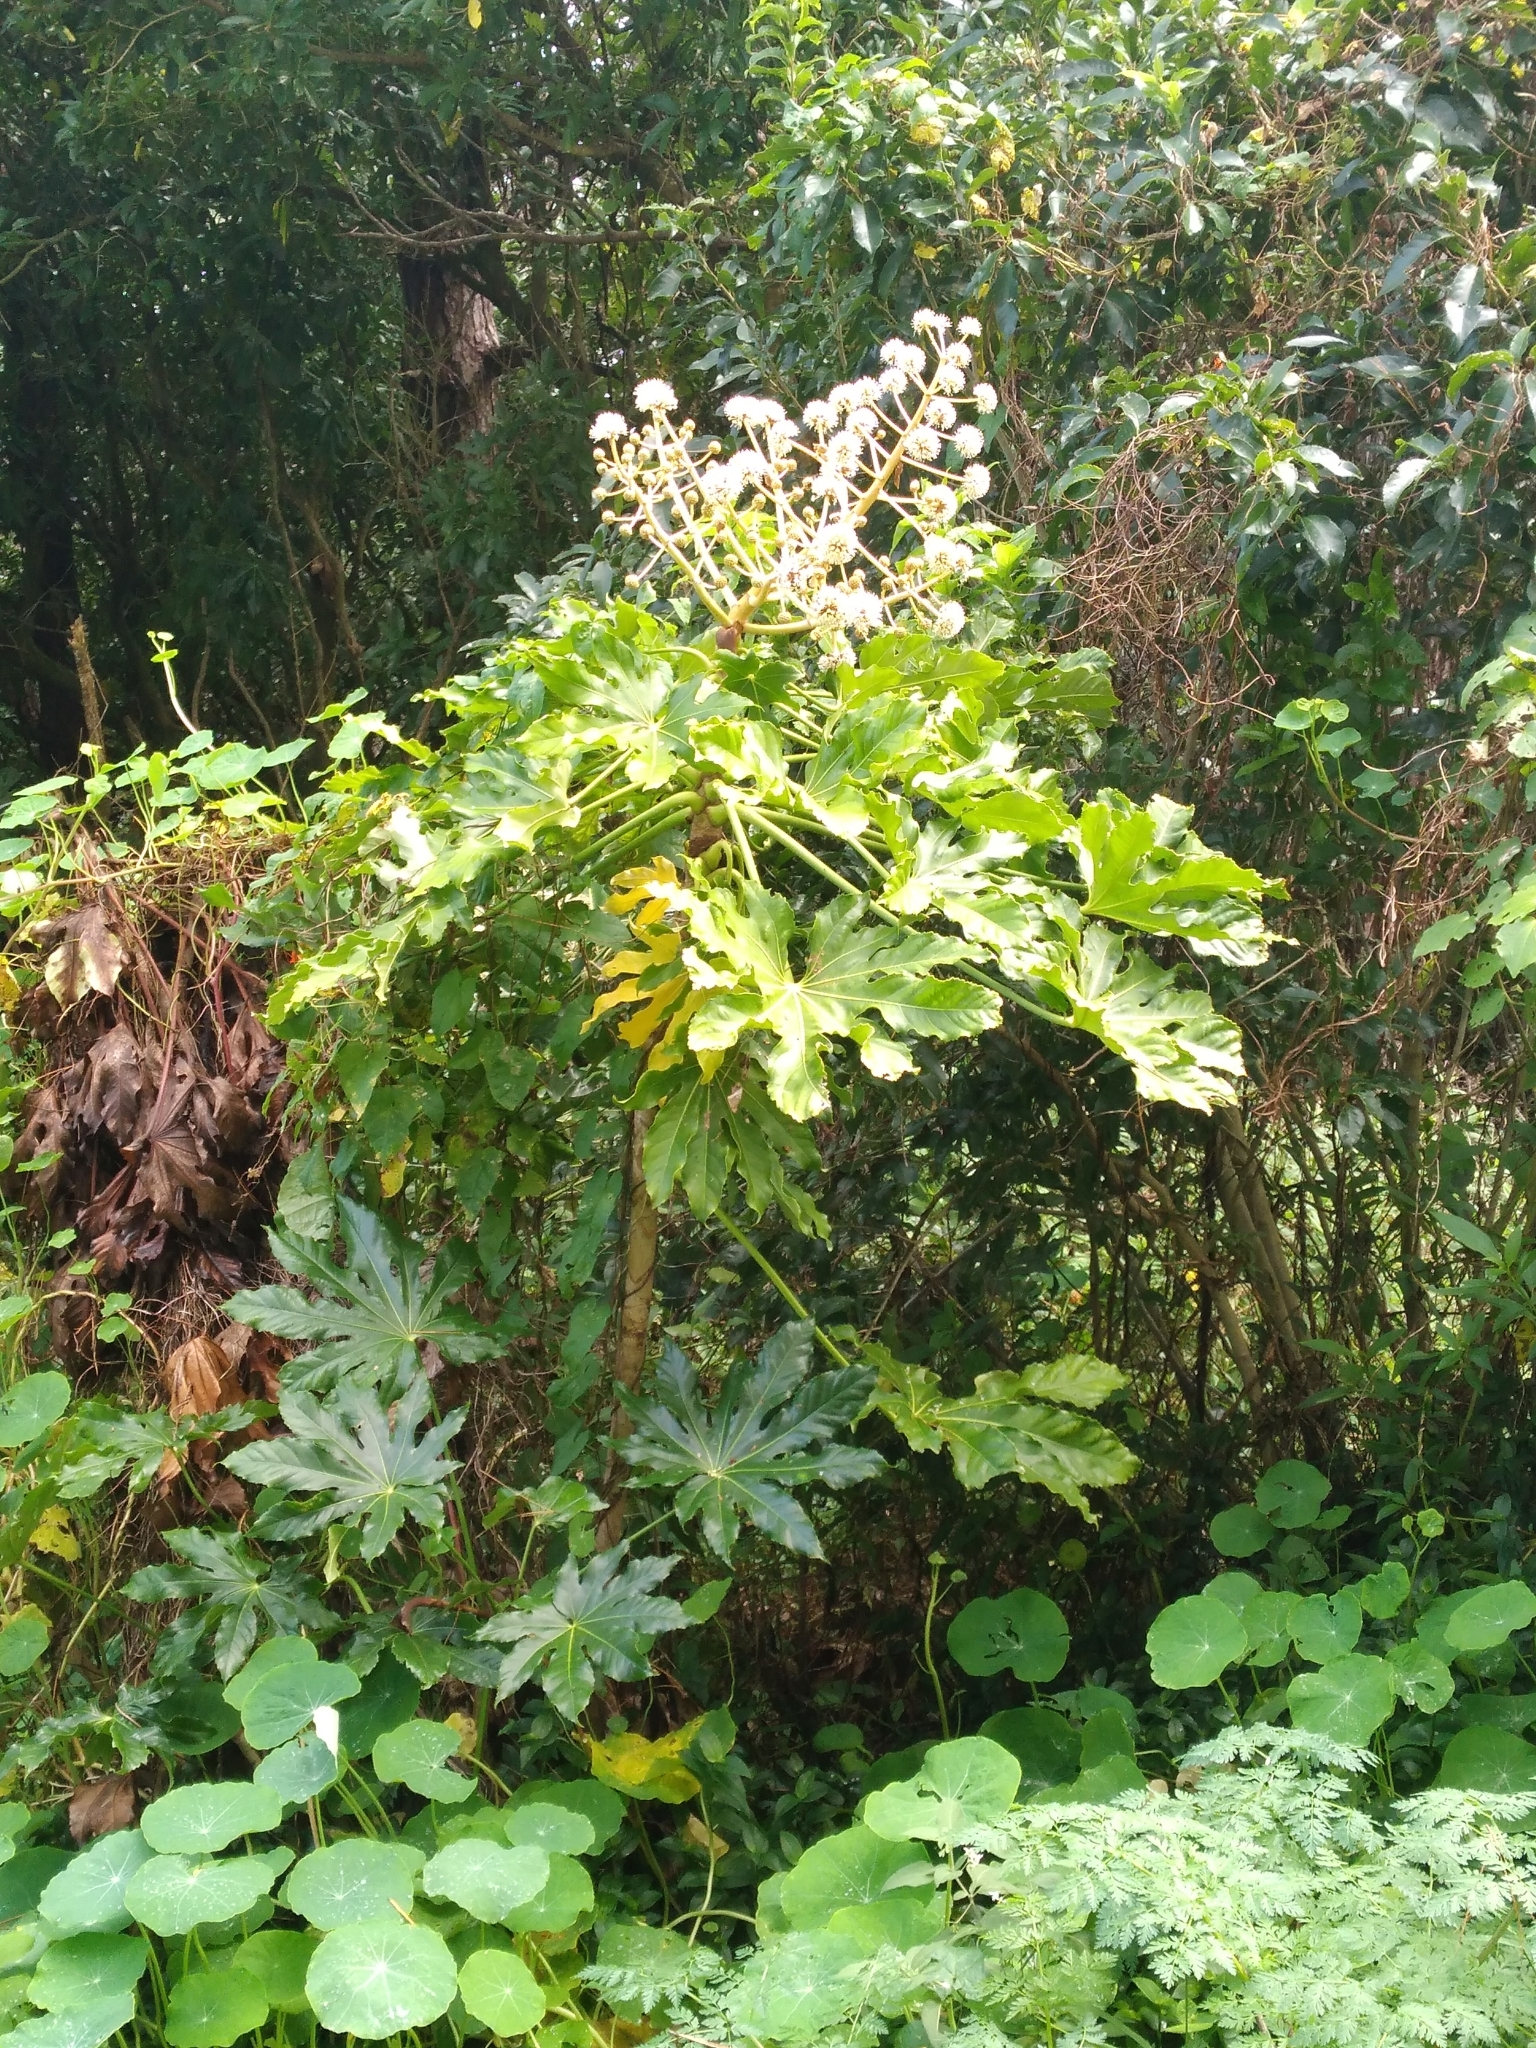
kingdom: Plantae
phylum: Tracheophyta
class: Magnoliopsida
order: Apiales
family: Araliaceae
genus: Fatsia
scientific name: Fatsia japonica
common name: Fatsia
